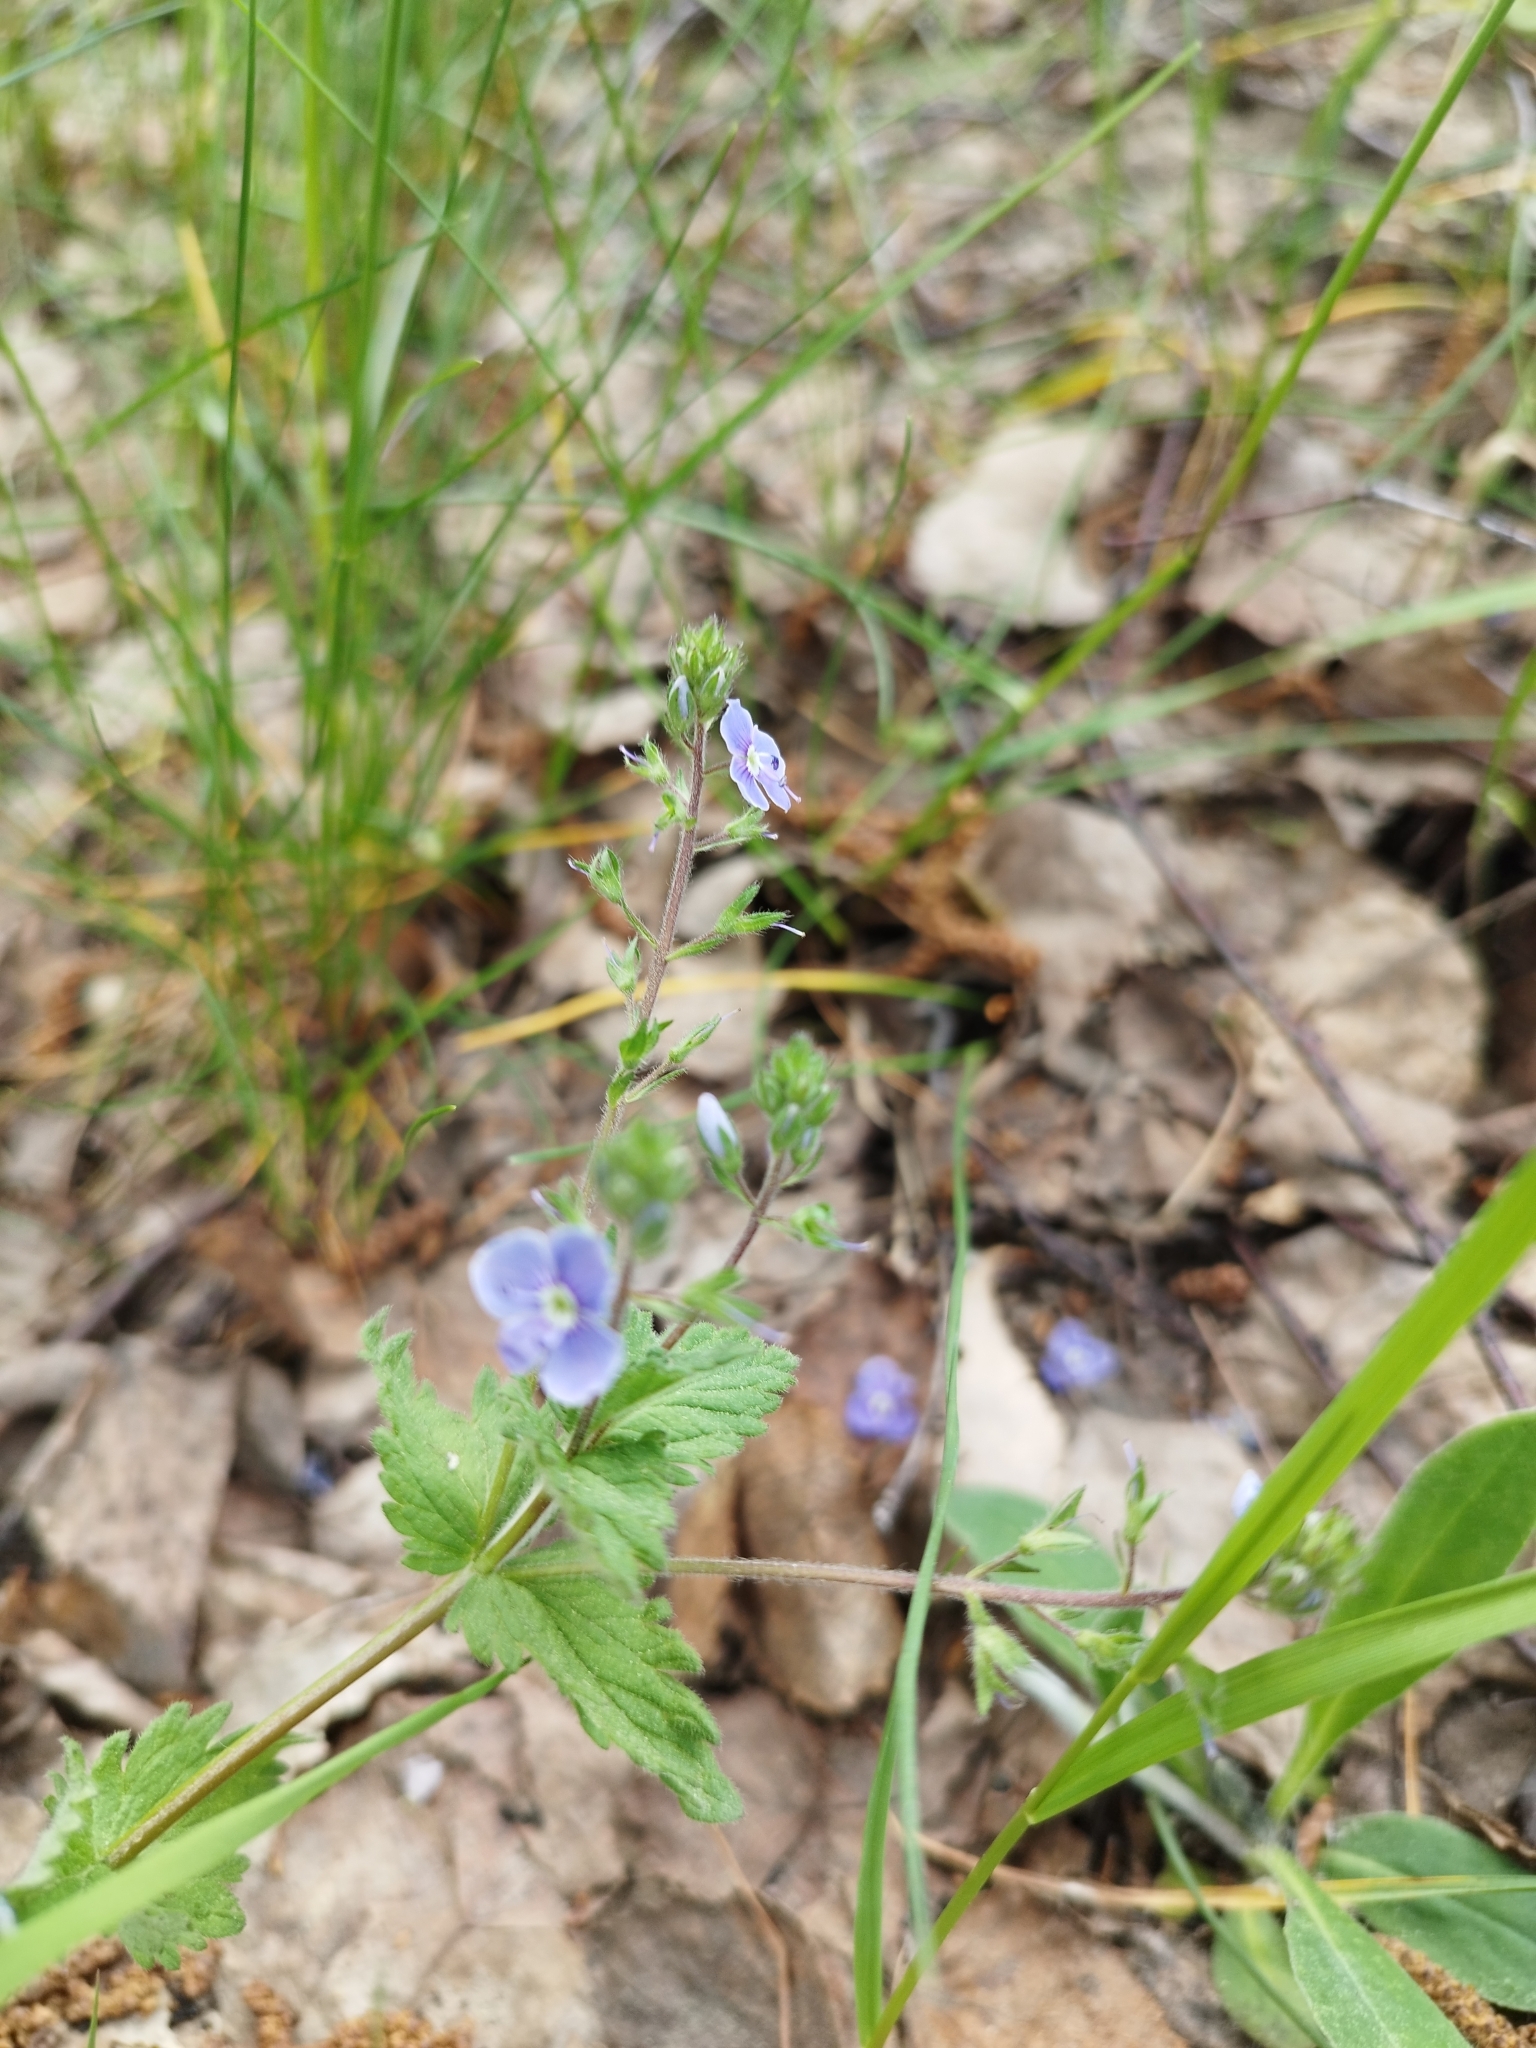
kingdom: Plantae
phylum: Tracheophyta
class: Magnoliopsida
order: Lamiales
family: Plantaginaceae
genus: Veronica
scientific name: Veronica chamaedrys
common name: Germander speedwell
